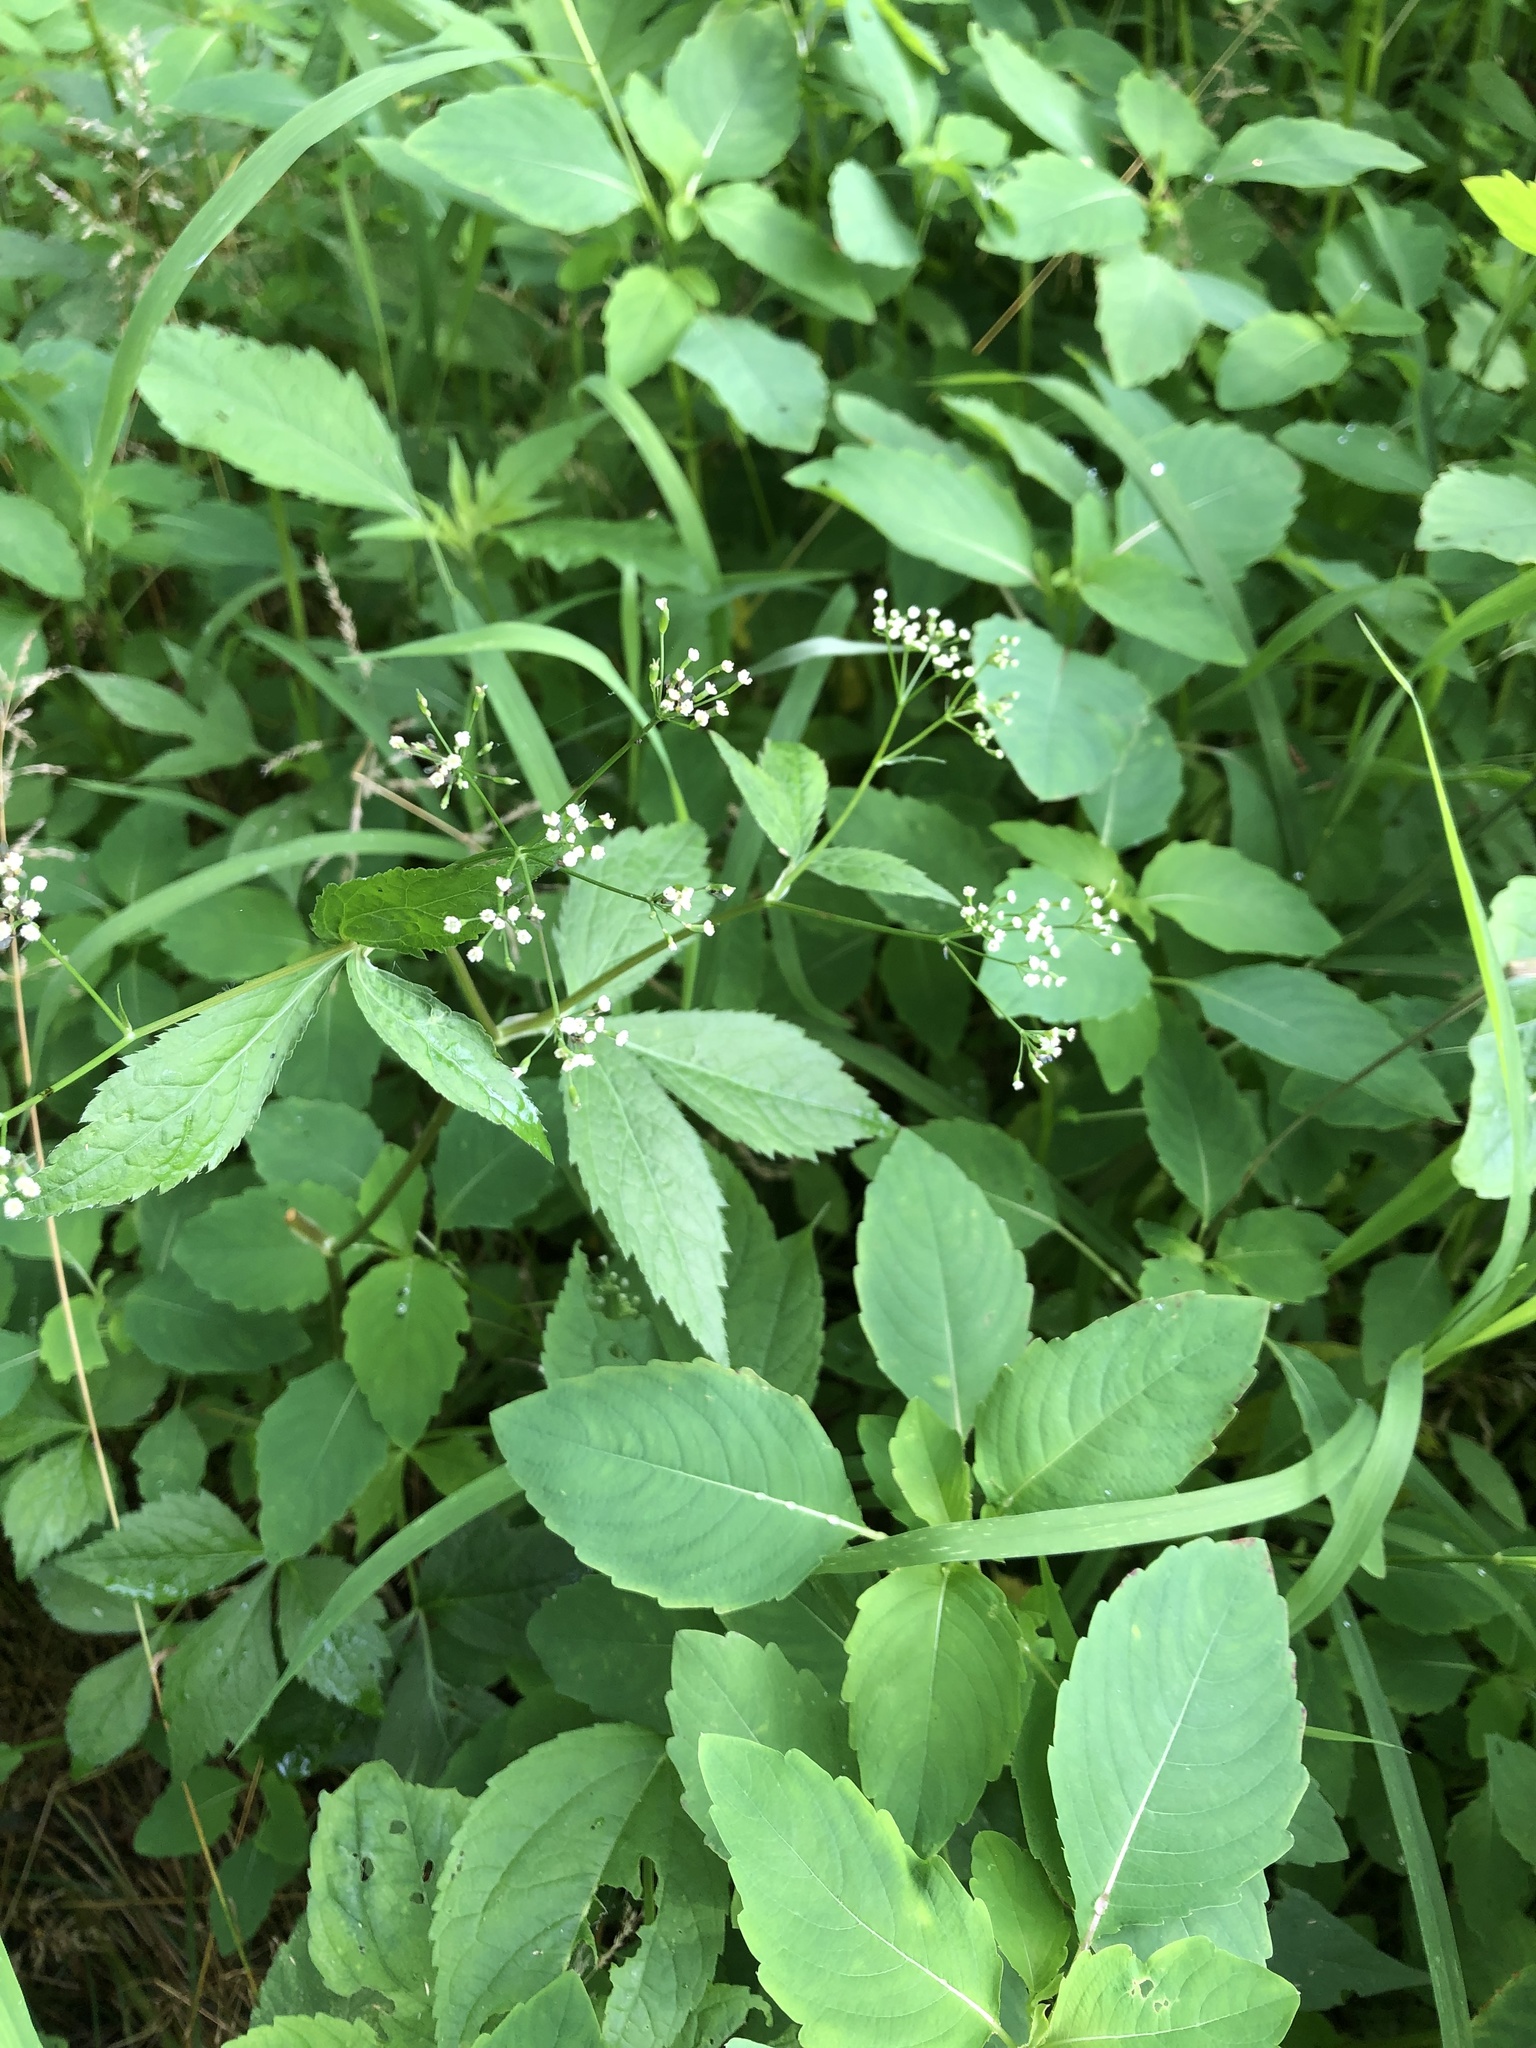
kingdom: Plantae
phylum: Tracheophyta
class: Magnoliopsida
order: Apiales
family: Apiaceae
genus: Cryptotaenia
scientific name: Cryptotaenia canadensis
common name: Honewort
